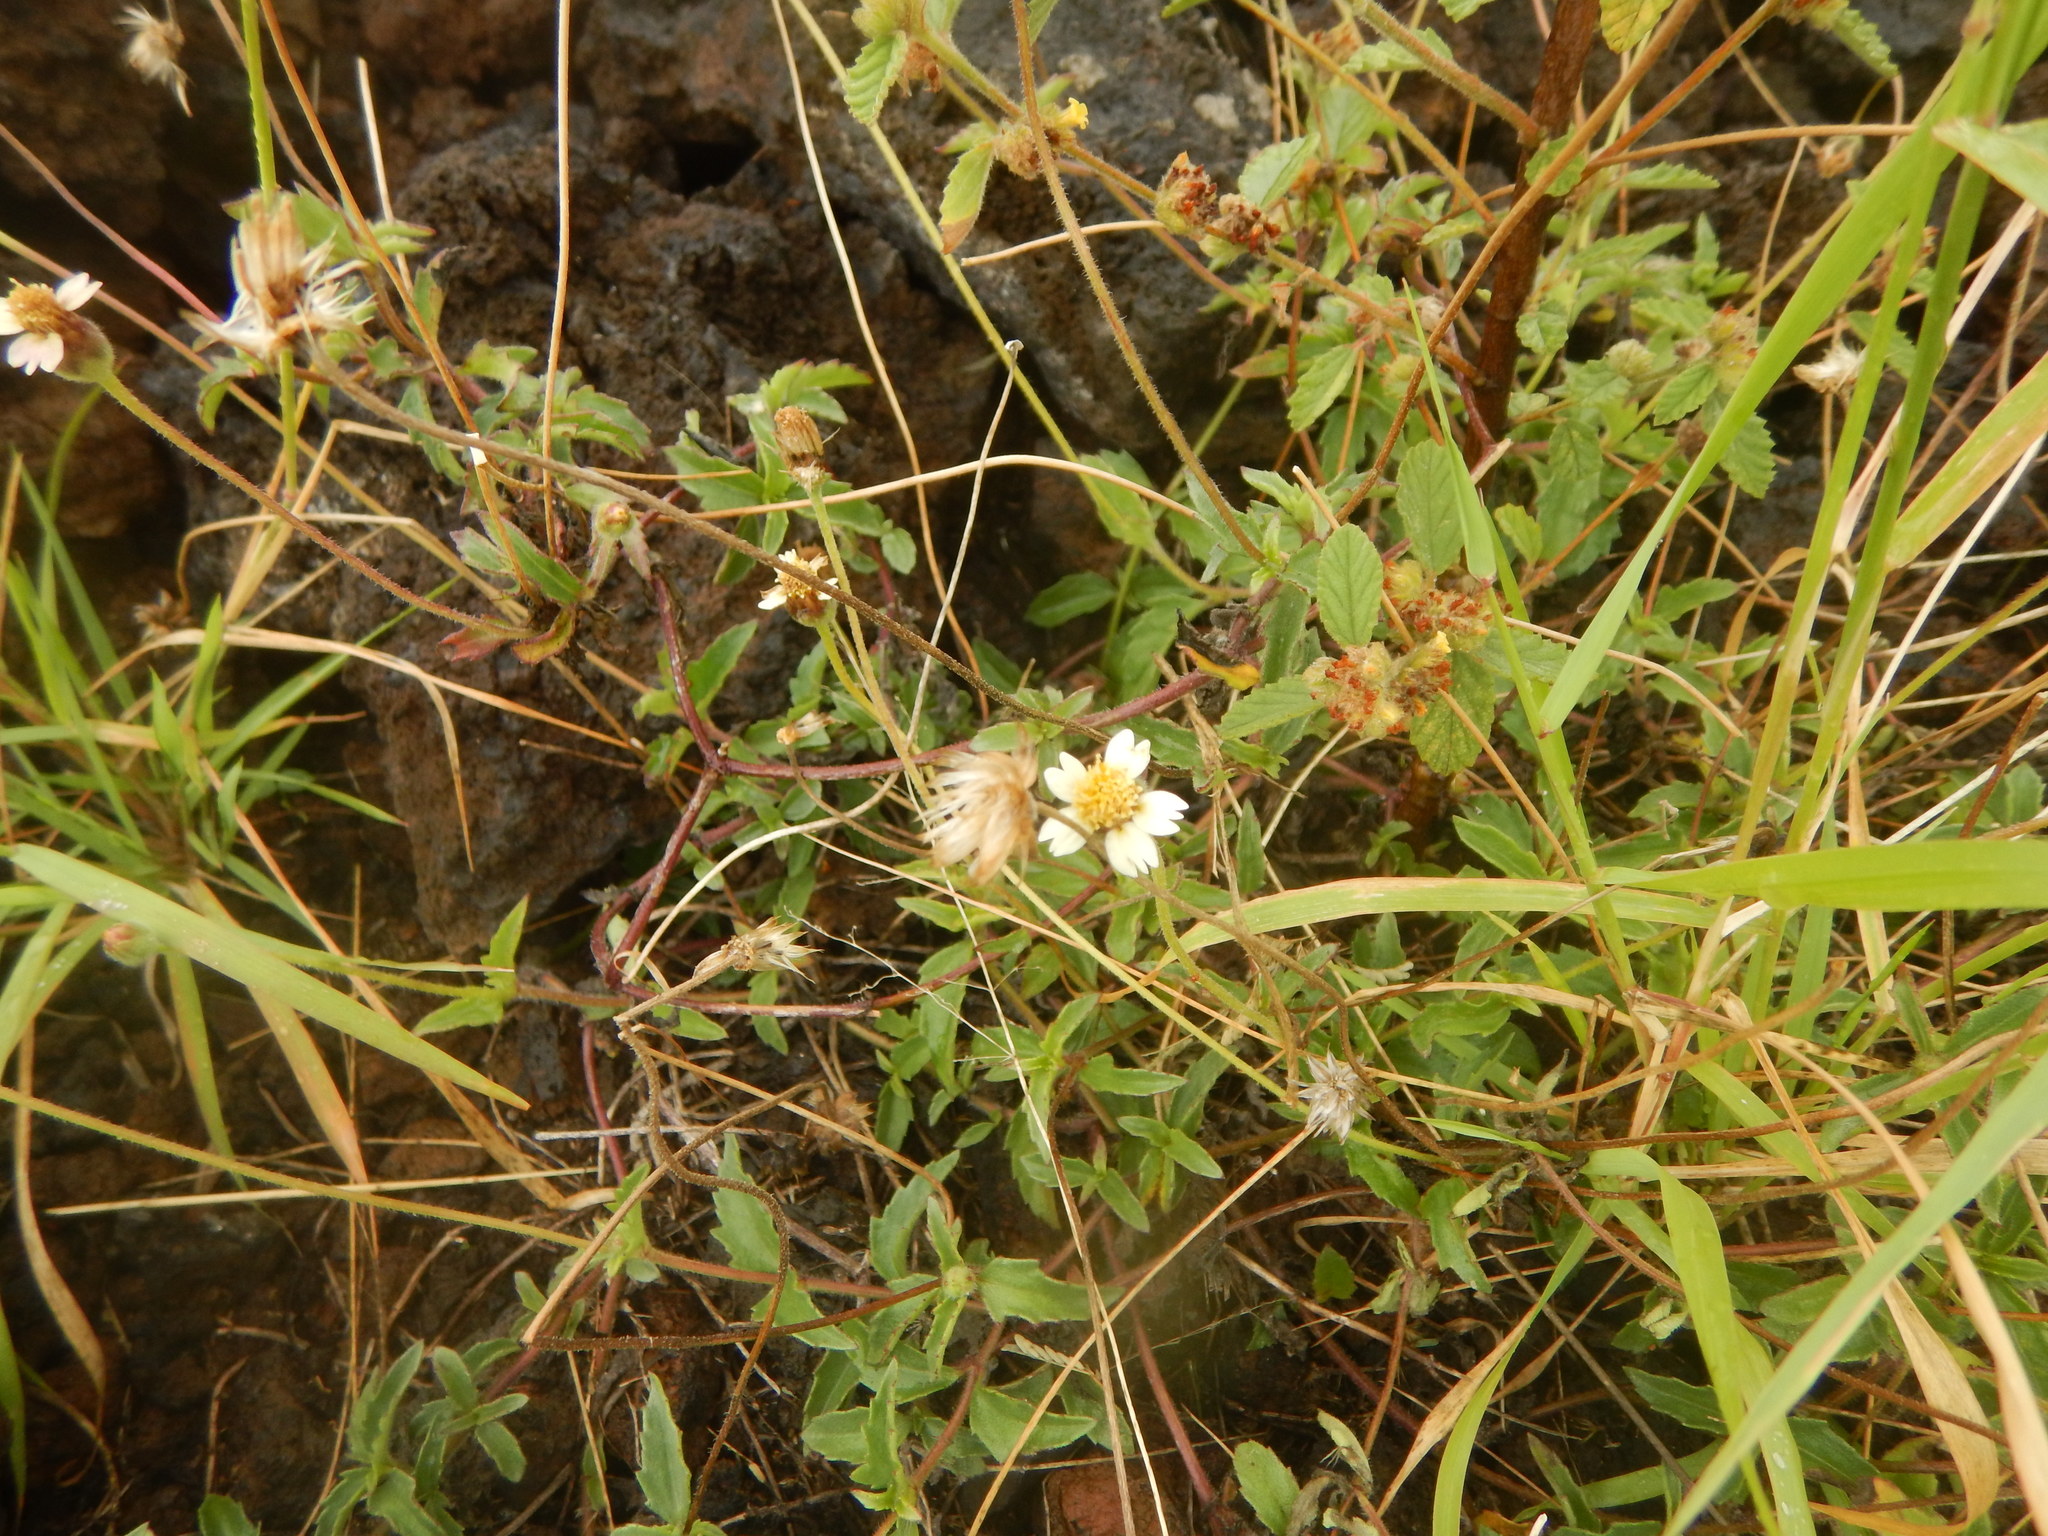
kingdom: Plantae
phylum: Tracheophyta
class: Magnoliopsida
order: Asterales
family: Asteraceae
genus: Tridax
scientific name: Tridax procumbens
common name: Coatbuttons
